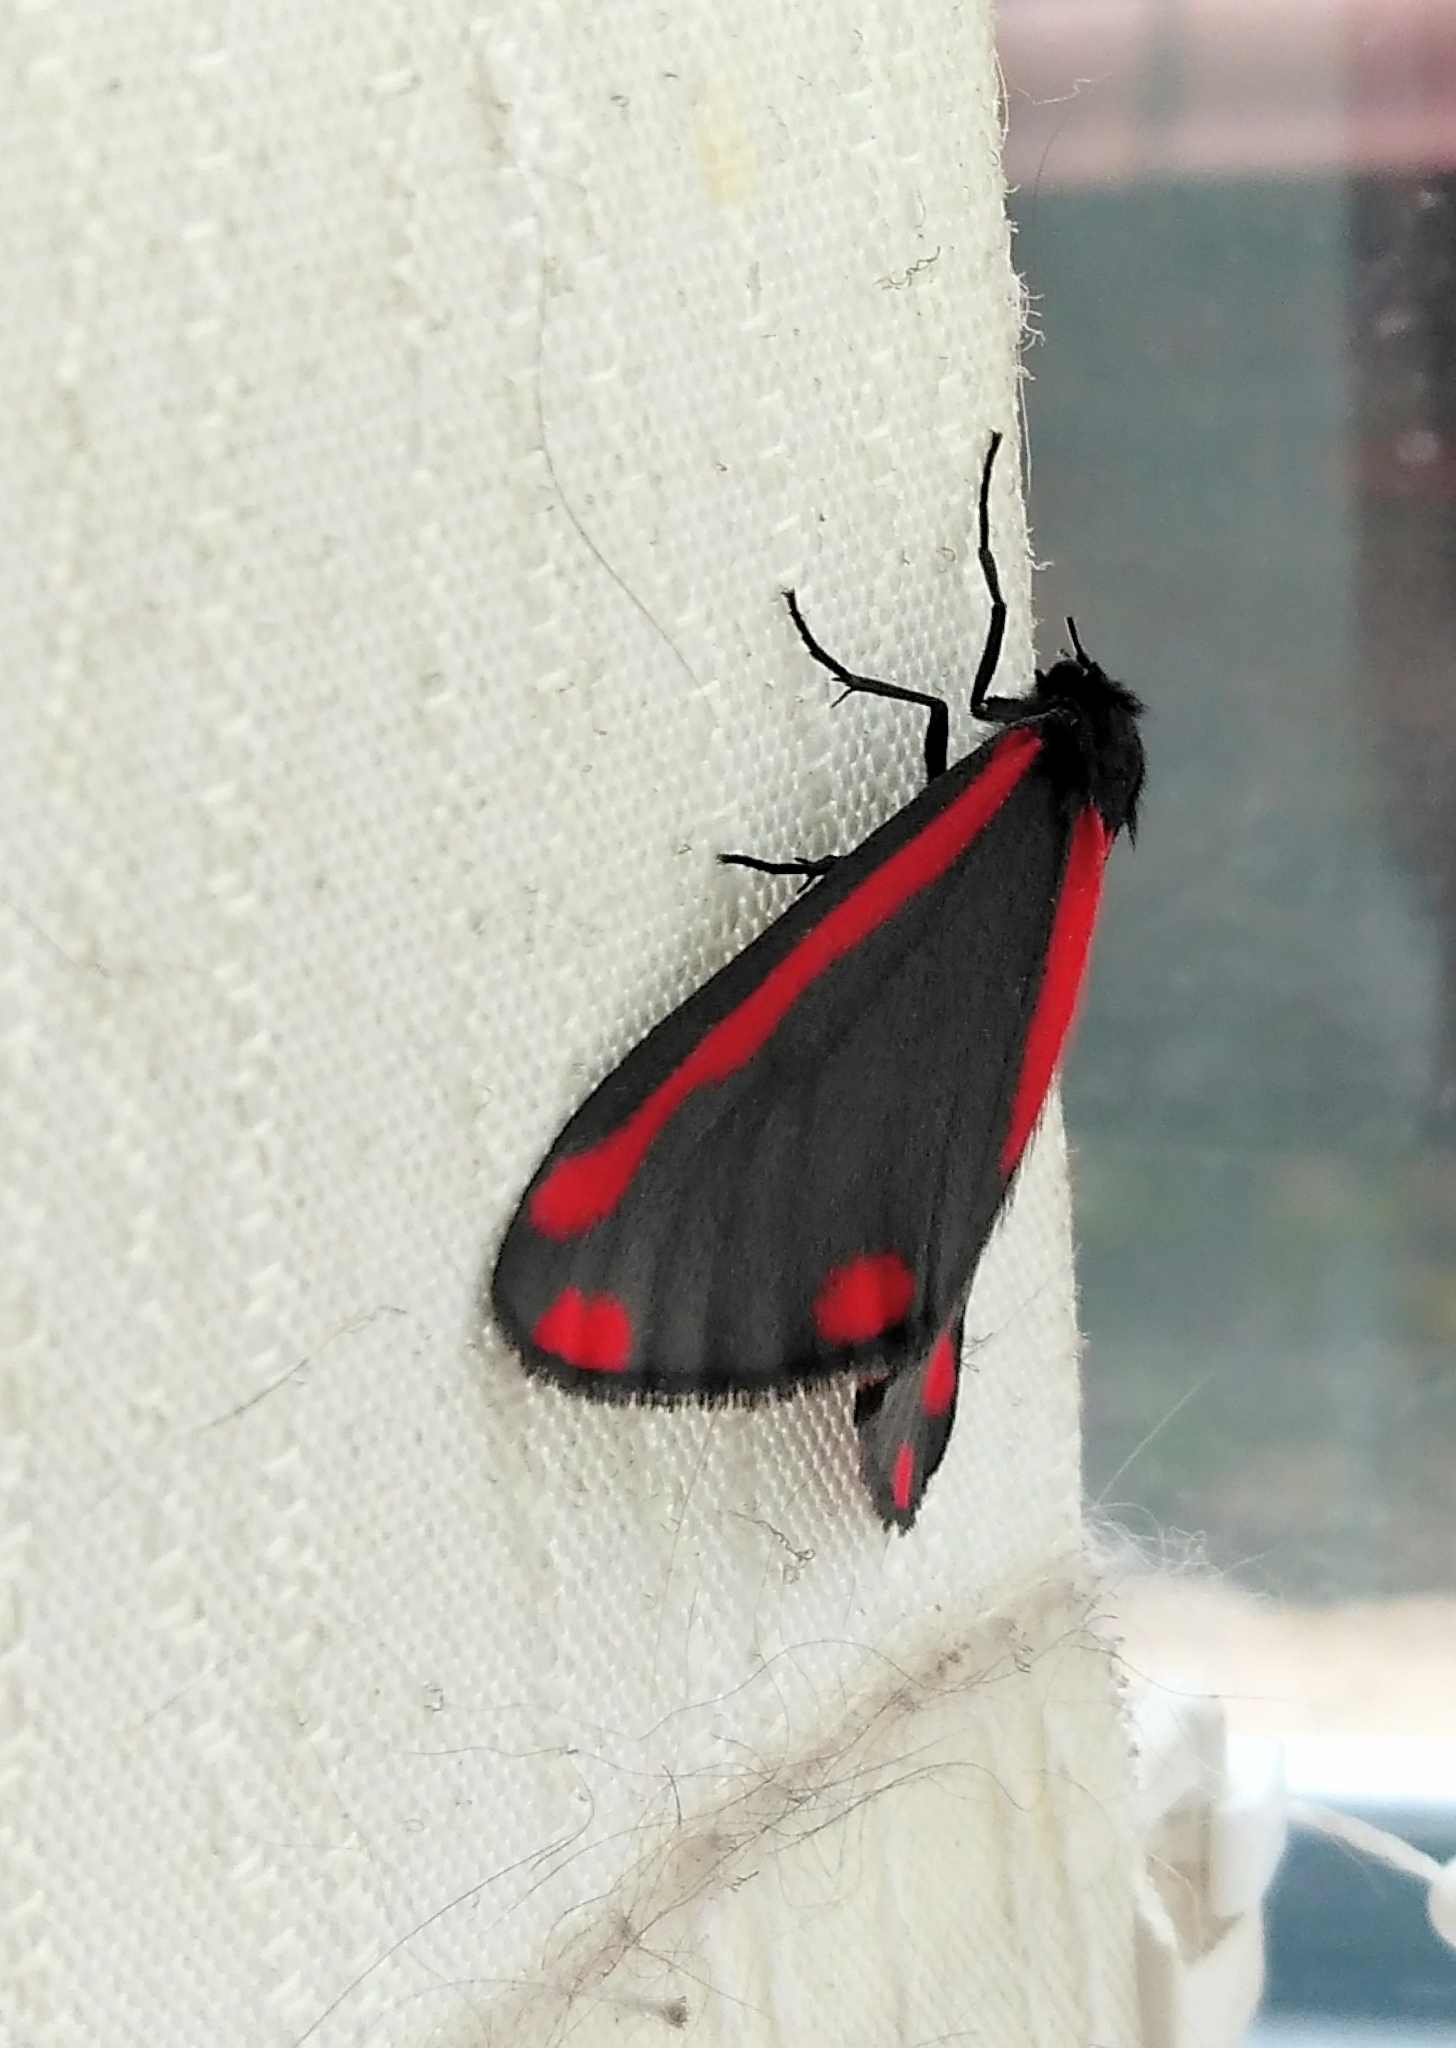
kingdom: Animalia
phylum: Arthropoda
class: Insecta
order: Lepidoptera
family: Erebidae
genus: Tyria
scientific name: Tyria jacobaeae
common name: Cinnabar
